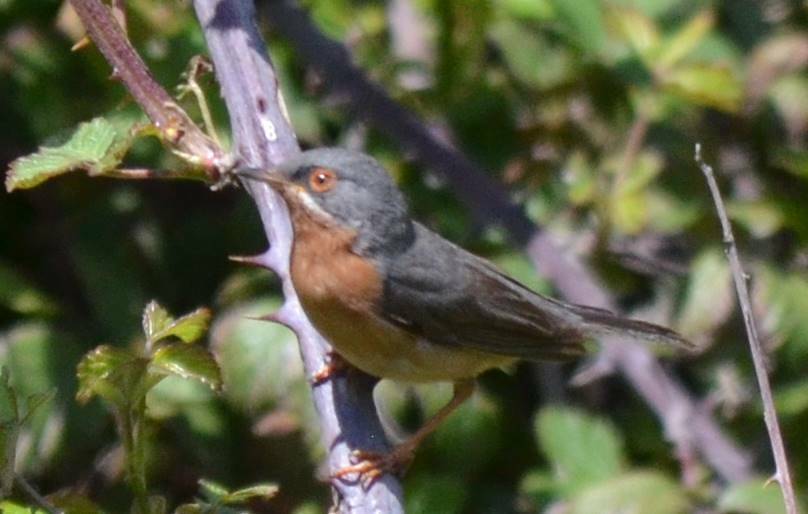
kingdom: Animalia
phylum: Chordata
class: Aves
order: Passeriformes
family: Sylviidae
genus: Curruca
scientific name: Curruca iberiae
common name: Western subalpine warbler
